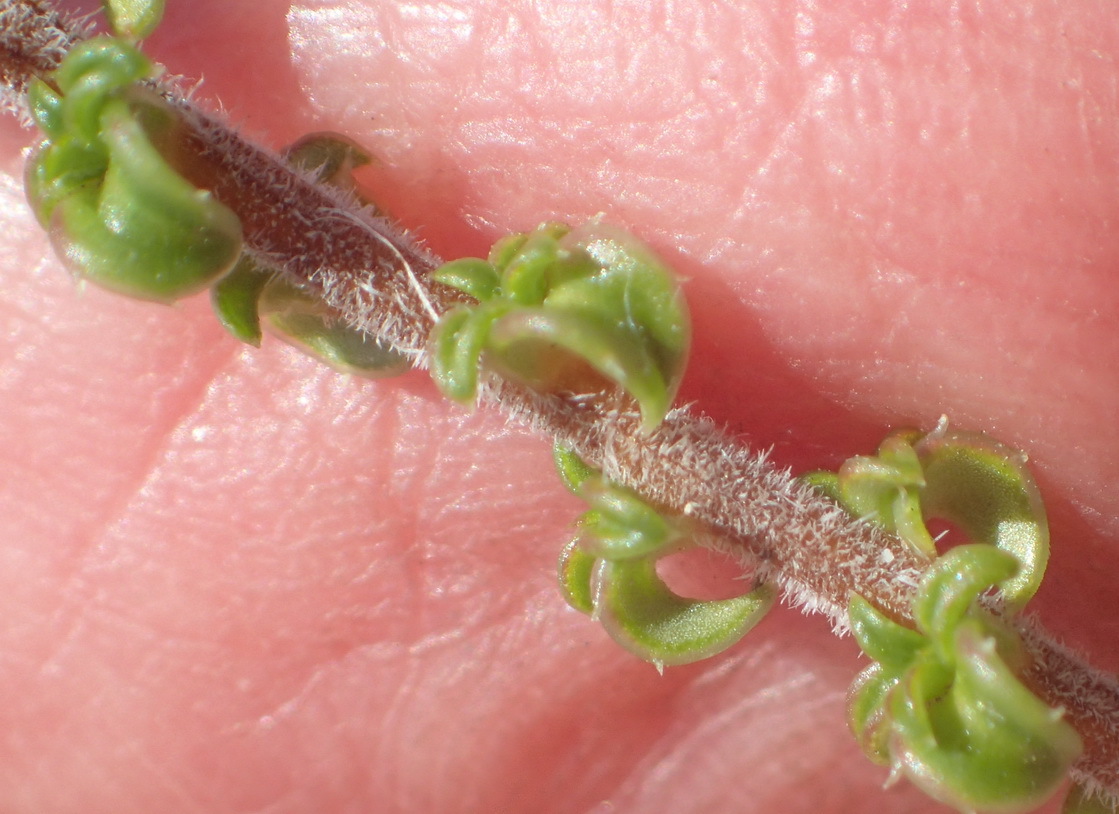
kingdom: Plantae
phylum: Tracheophyta
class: Magnoliopsida
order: Asterales
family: Campanulaceae
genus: Wahlenbergia
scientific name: Wahlenbergia desmantha
